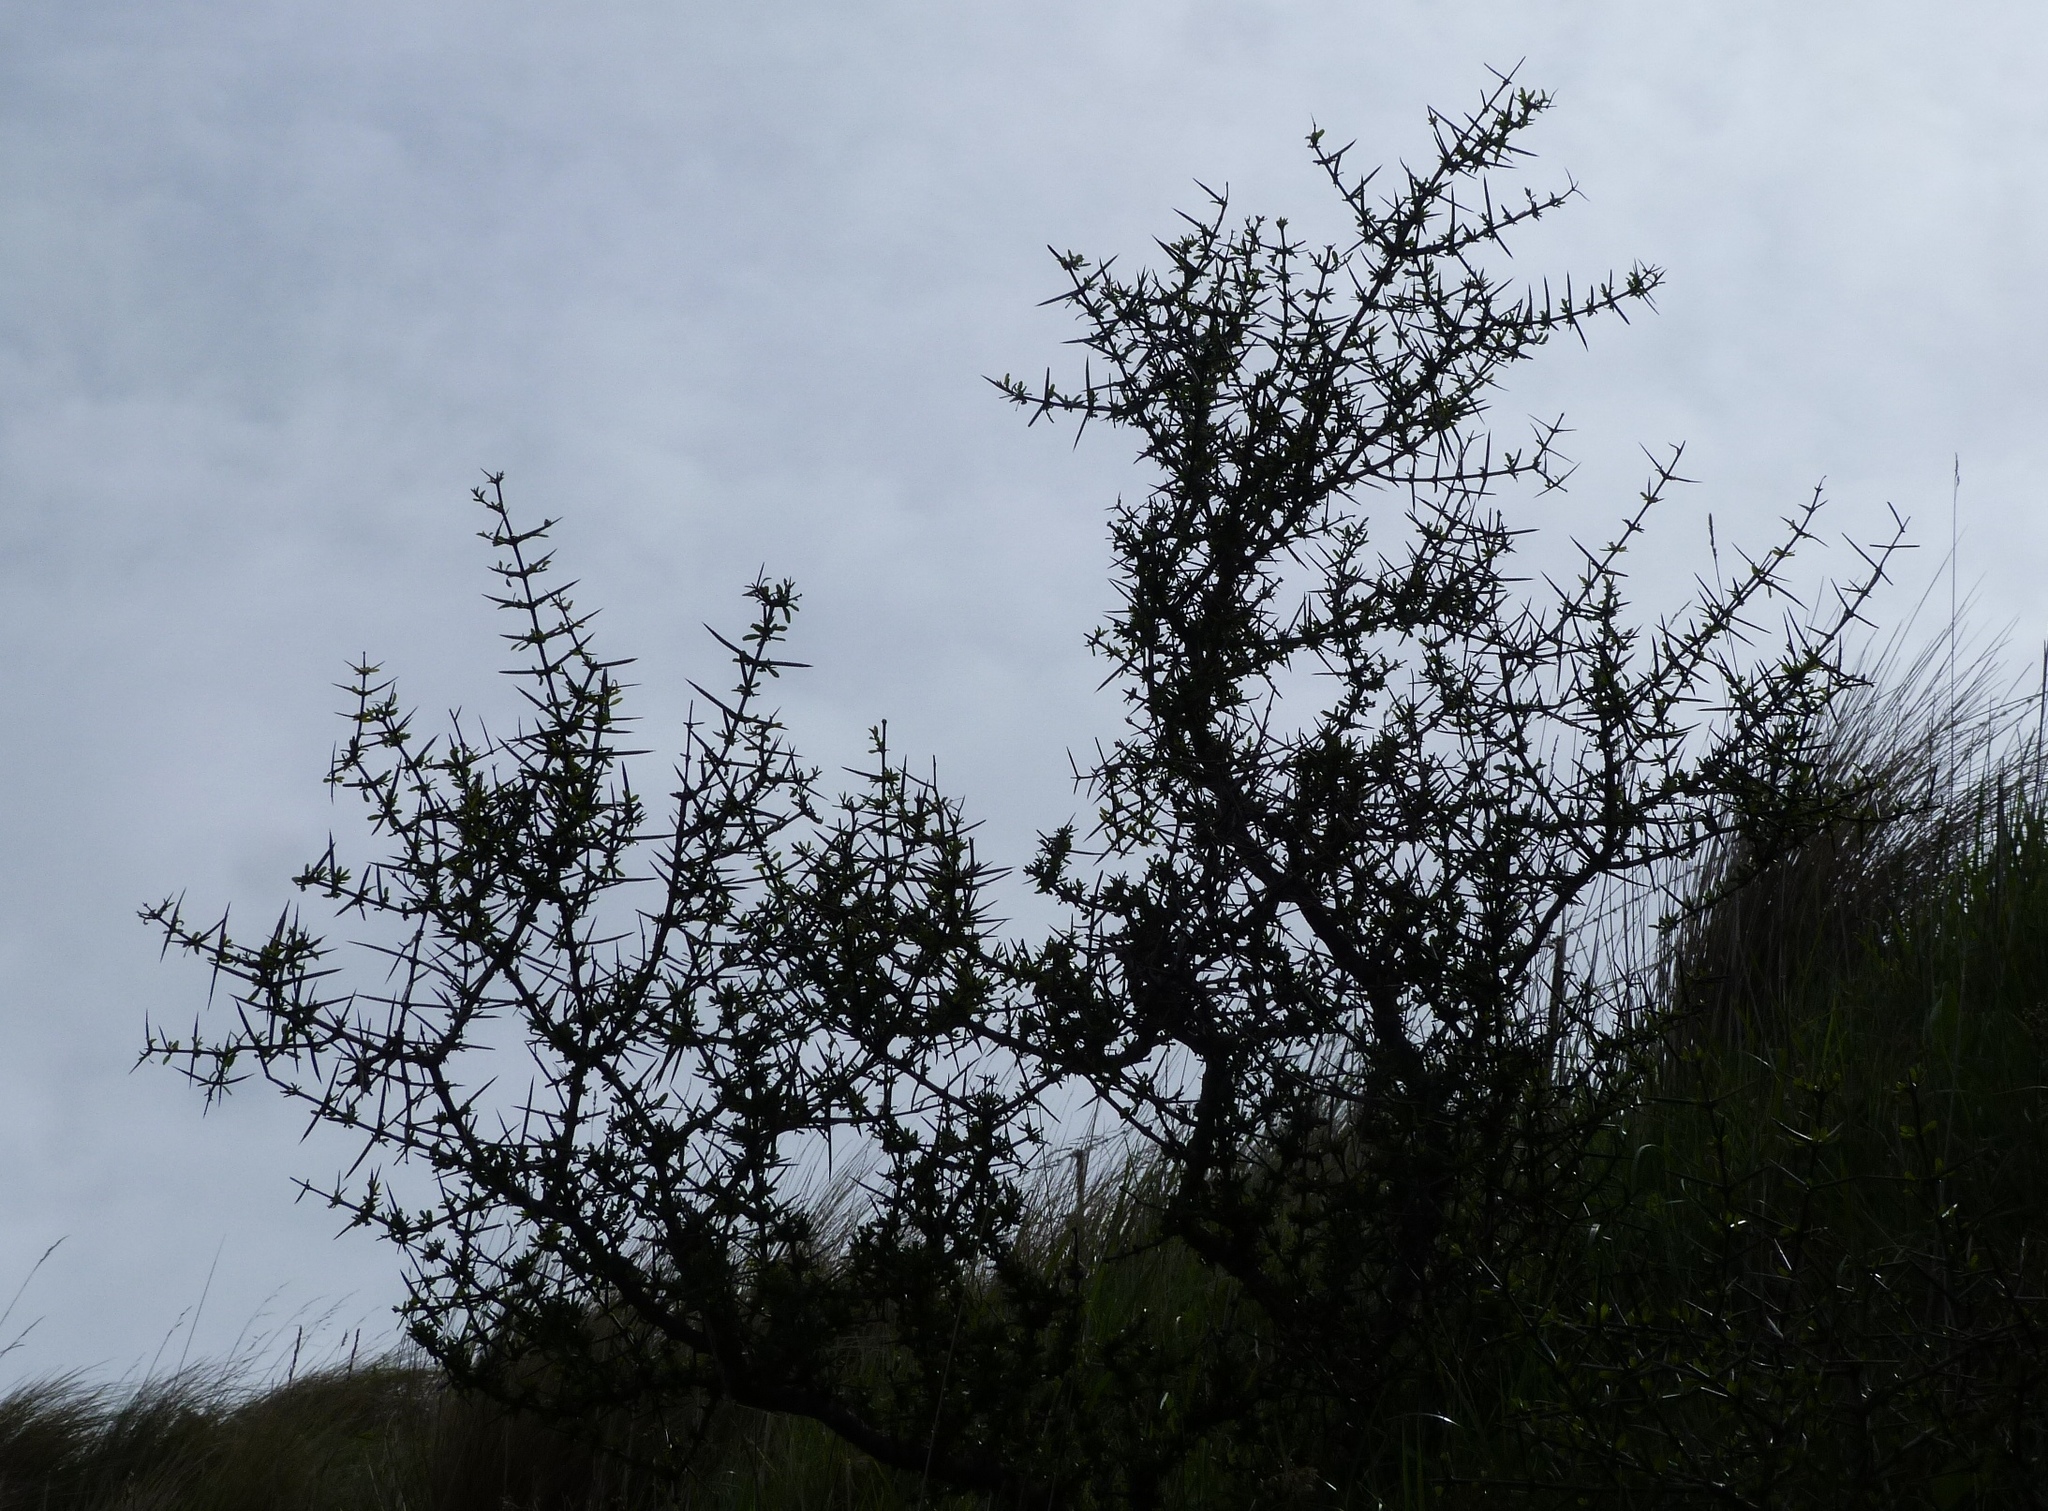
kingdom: Plantae
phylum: Tracheophyta
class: Magnoliopsida
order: Rosales
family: Rhamnaceae
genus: Discaria
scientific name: Discaria toumatou
